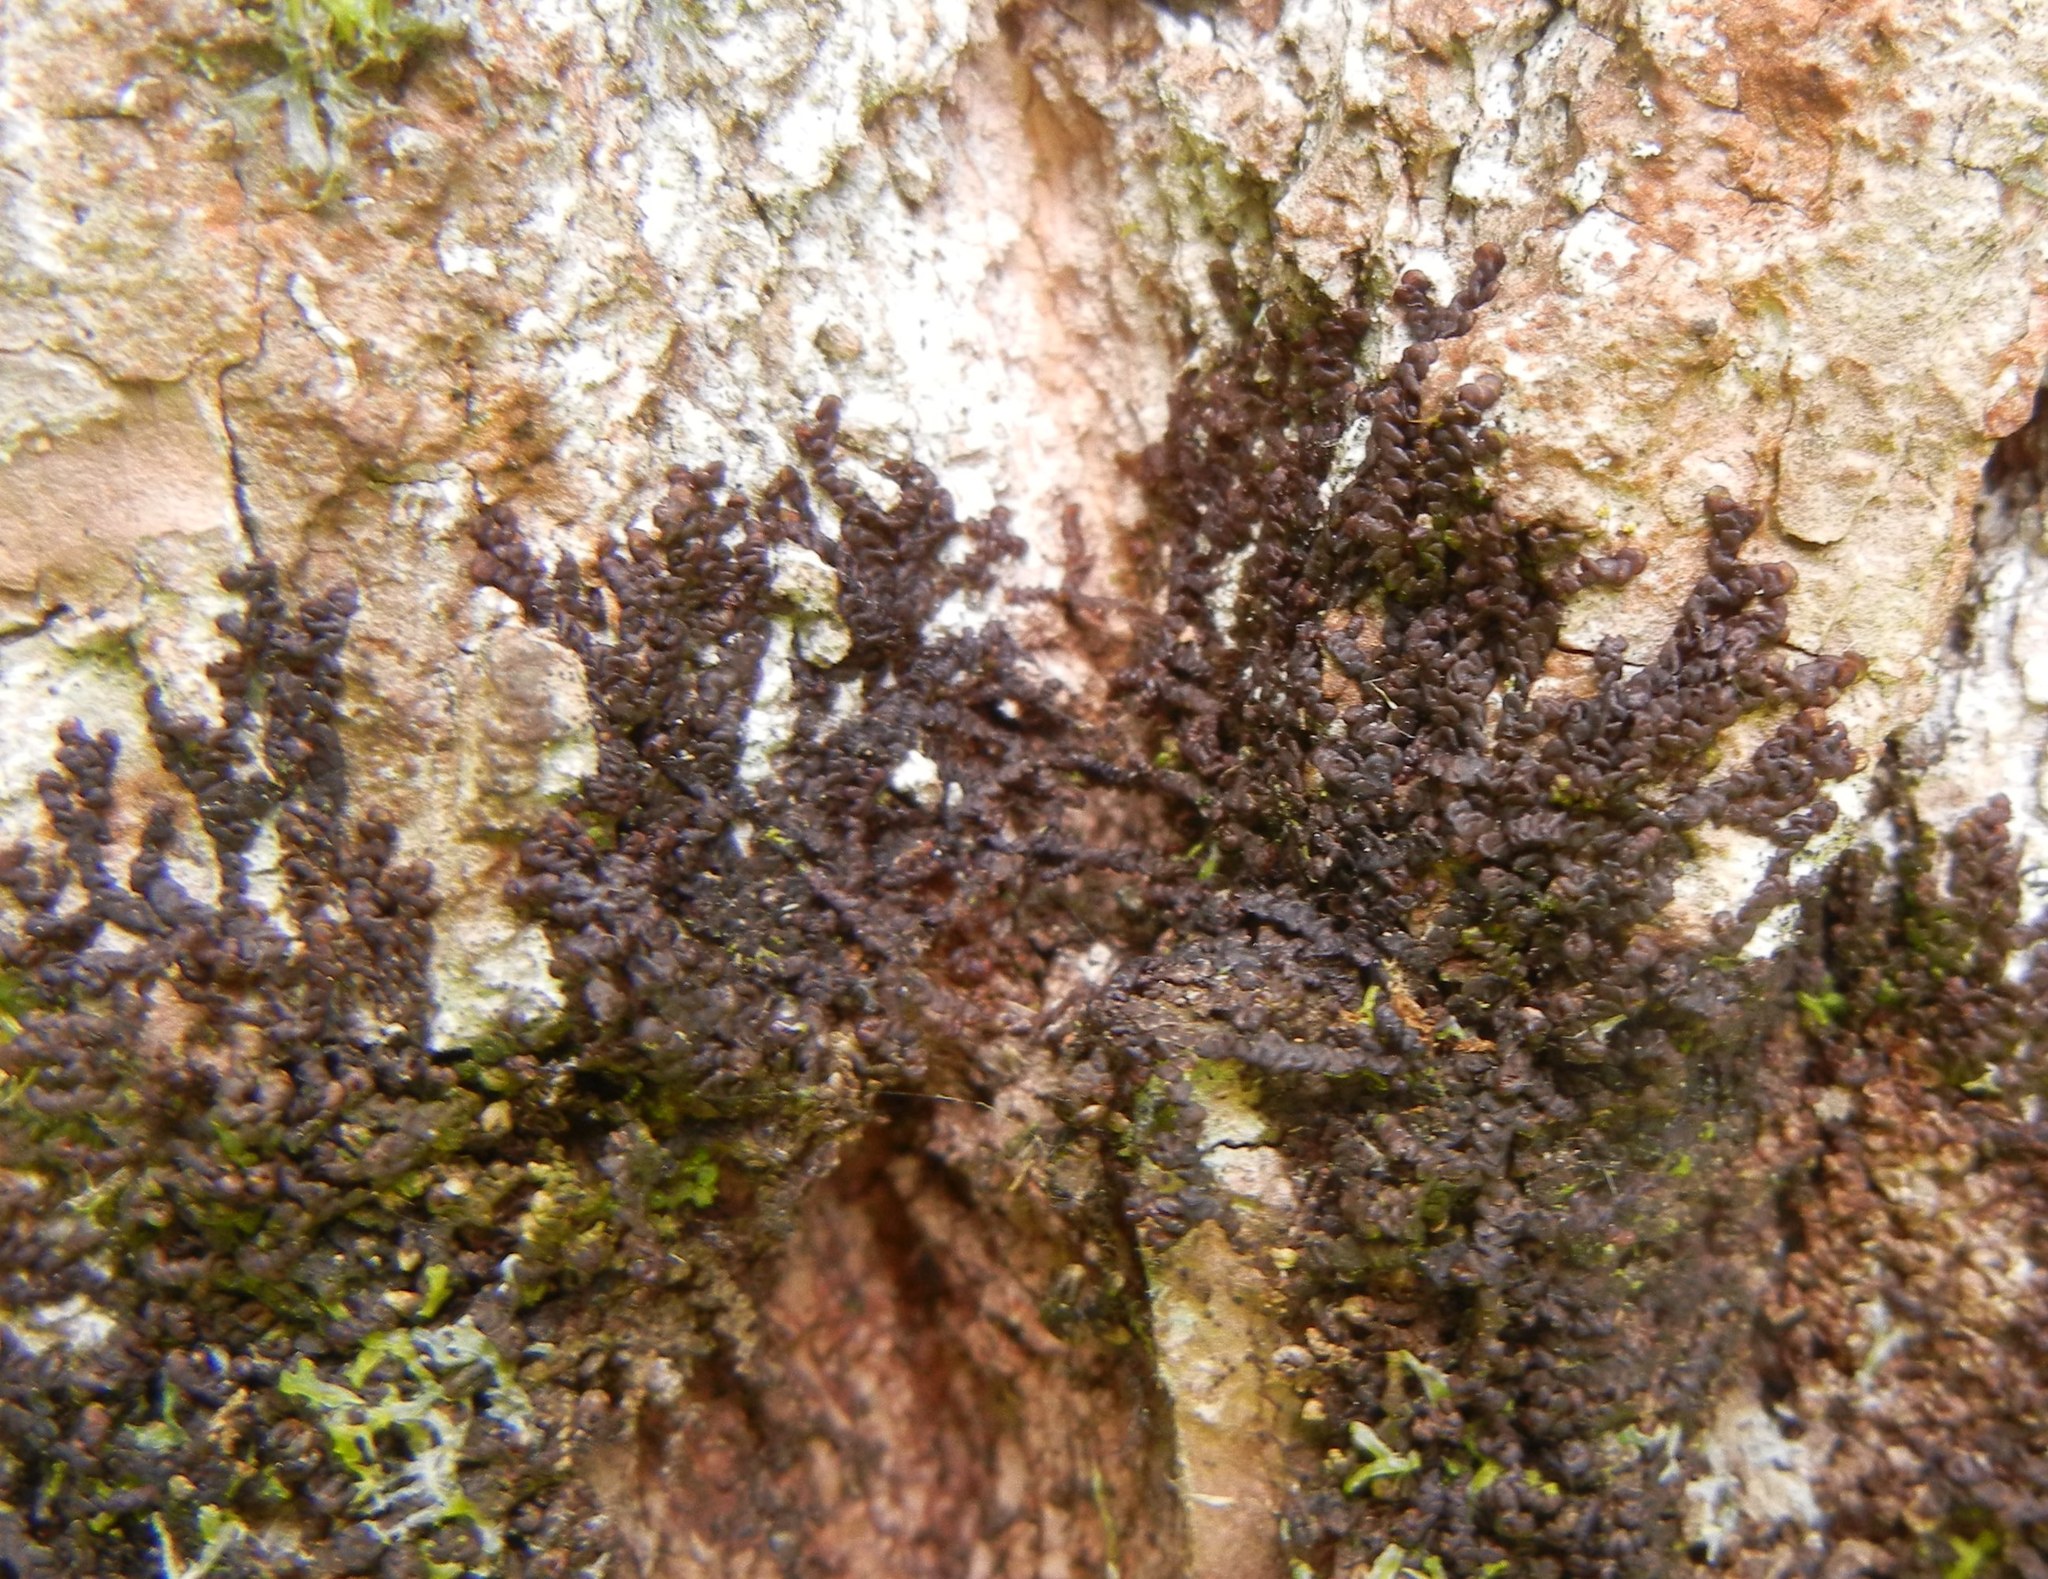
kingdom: Plantae
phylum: Marchantiophyta
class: Jungermanniopsida
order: Porellales
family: Frullaniaceae
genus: Frullania
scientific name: Frullania dilatata
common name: Dilated scalewort
